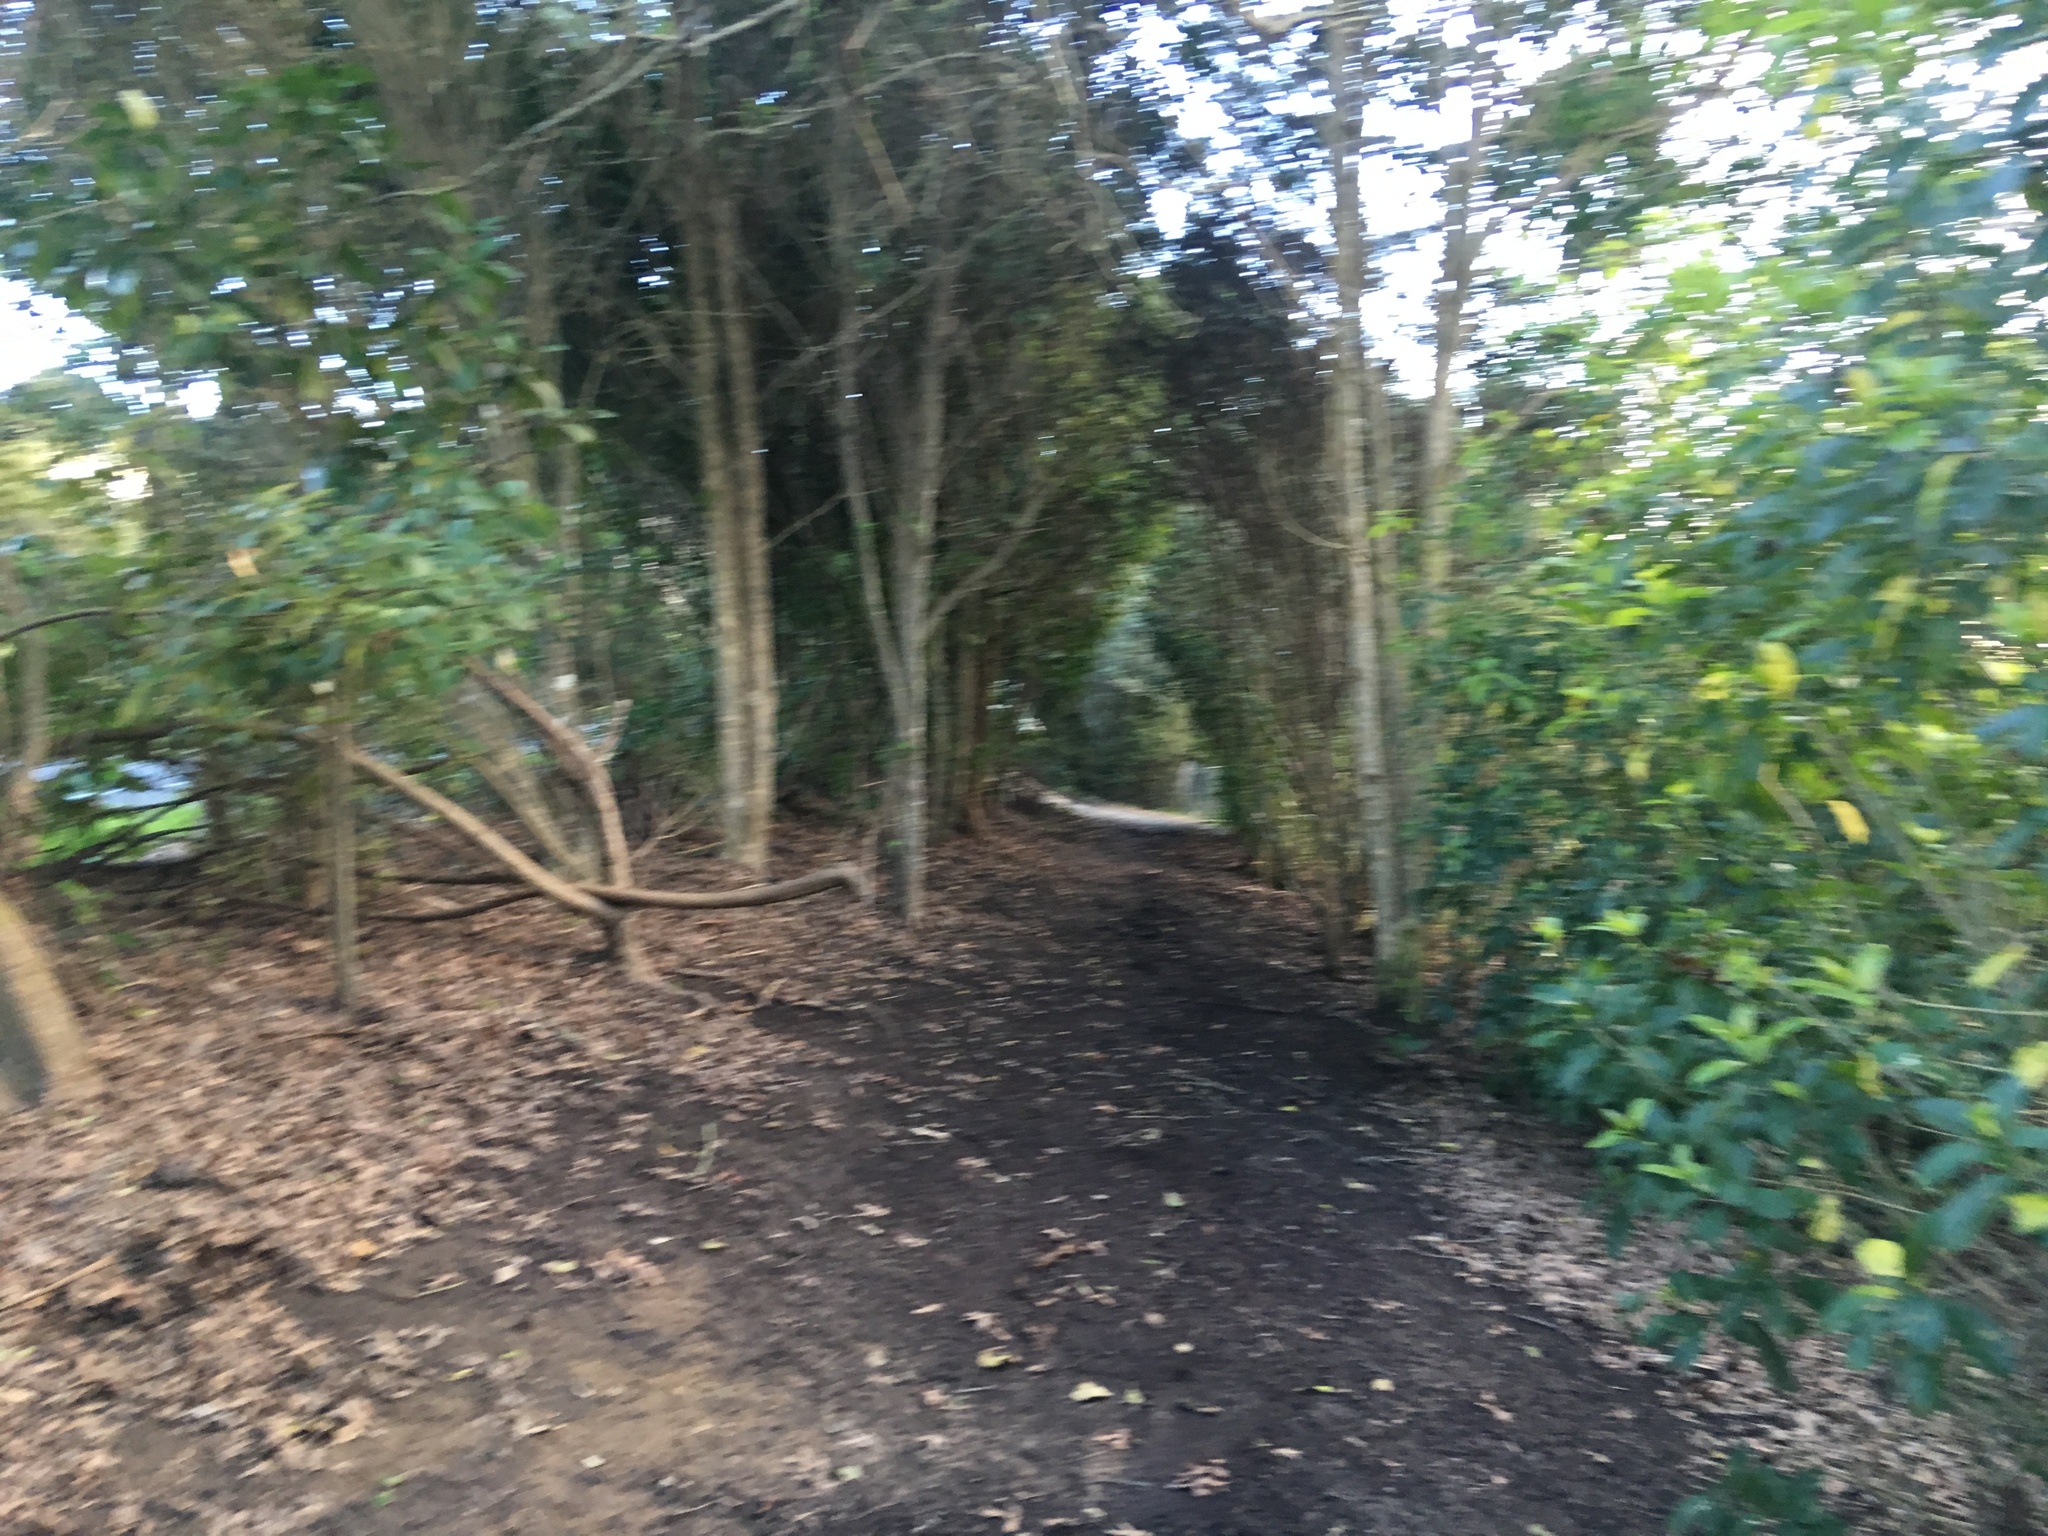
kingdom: Plantae
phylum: Tracheophyta
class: Magnoliopsida
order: Lamiales
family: Lamiaceae
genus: Vitex
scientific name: Vitex lucens
